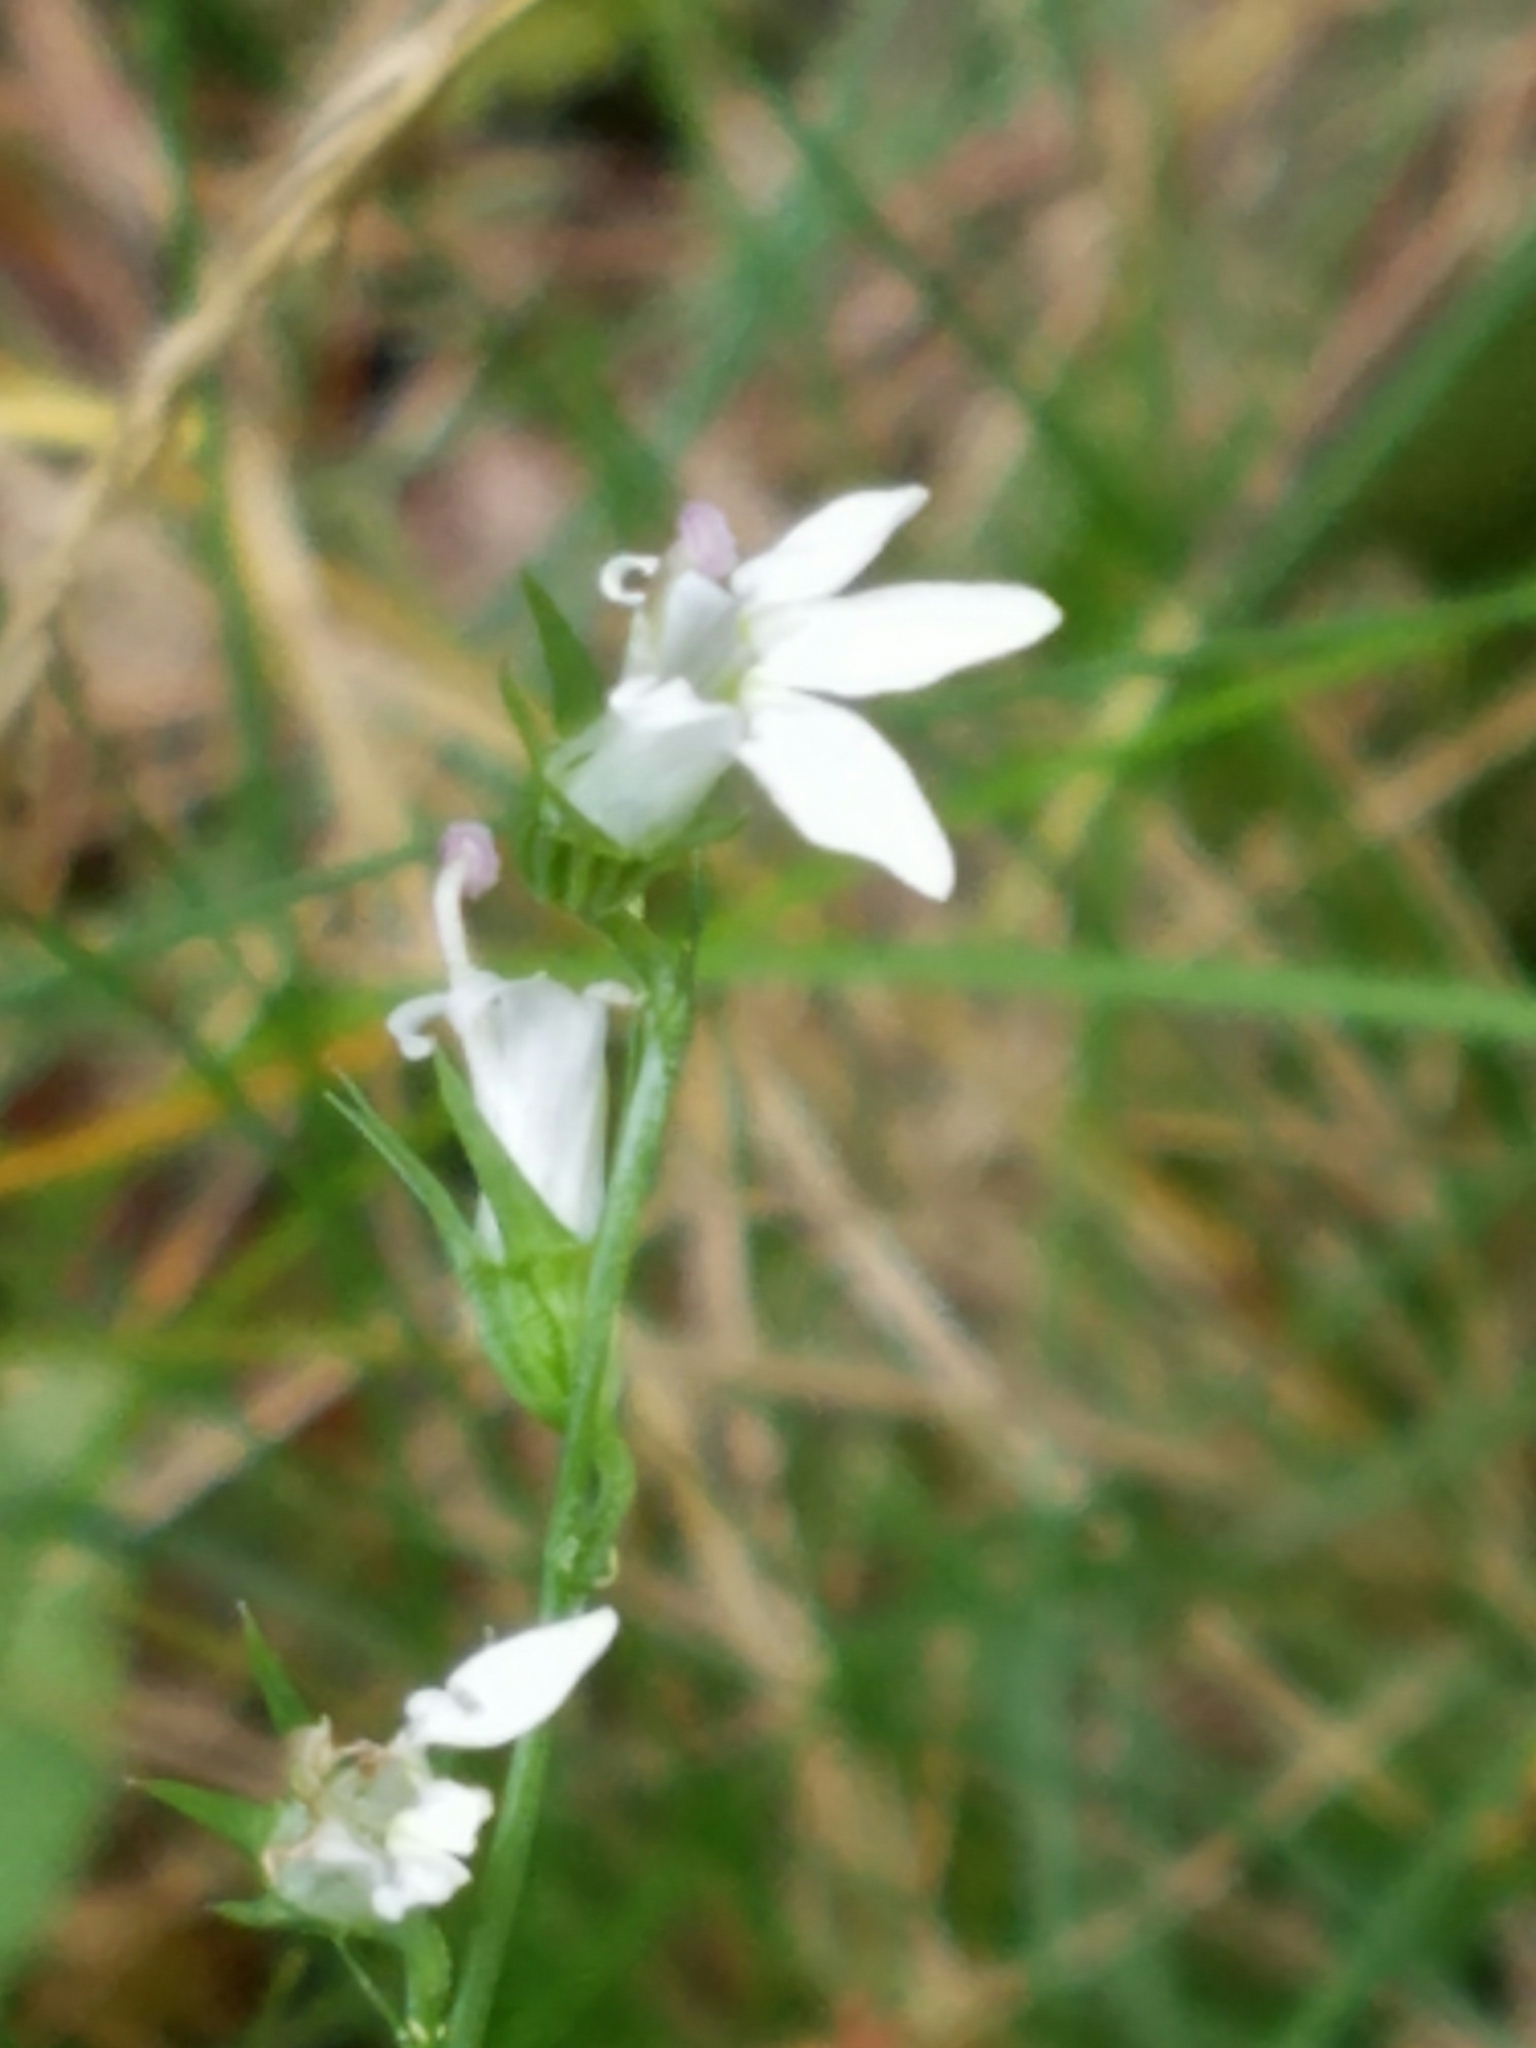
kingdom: Plantae
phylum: Tracheophyta
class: Magnoliopsida
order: Asterales
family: Campanulaceae
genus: Lobelia
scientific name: Lobelia spicata
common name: Pale-spike lobelia
